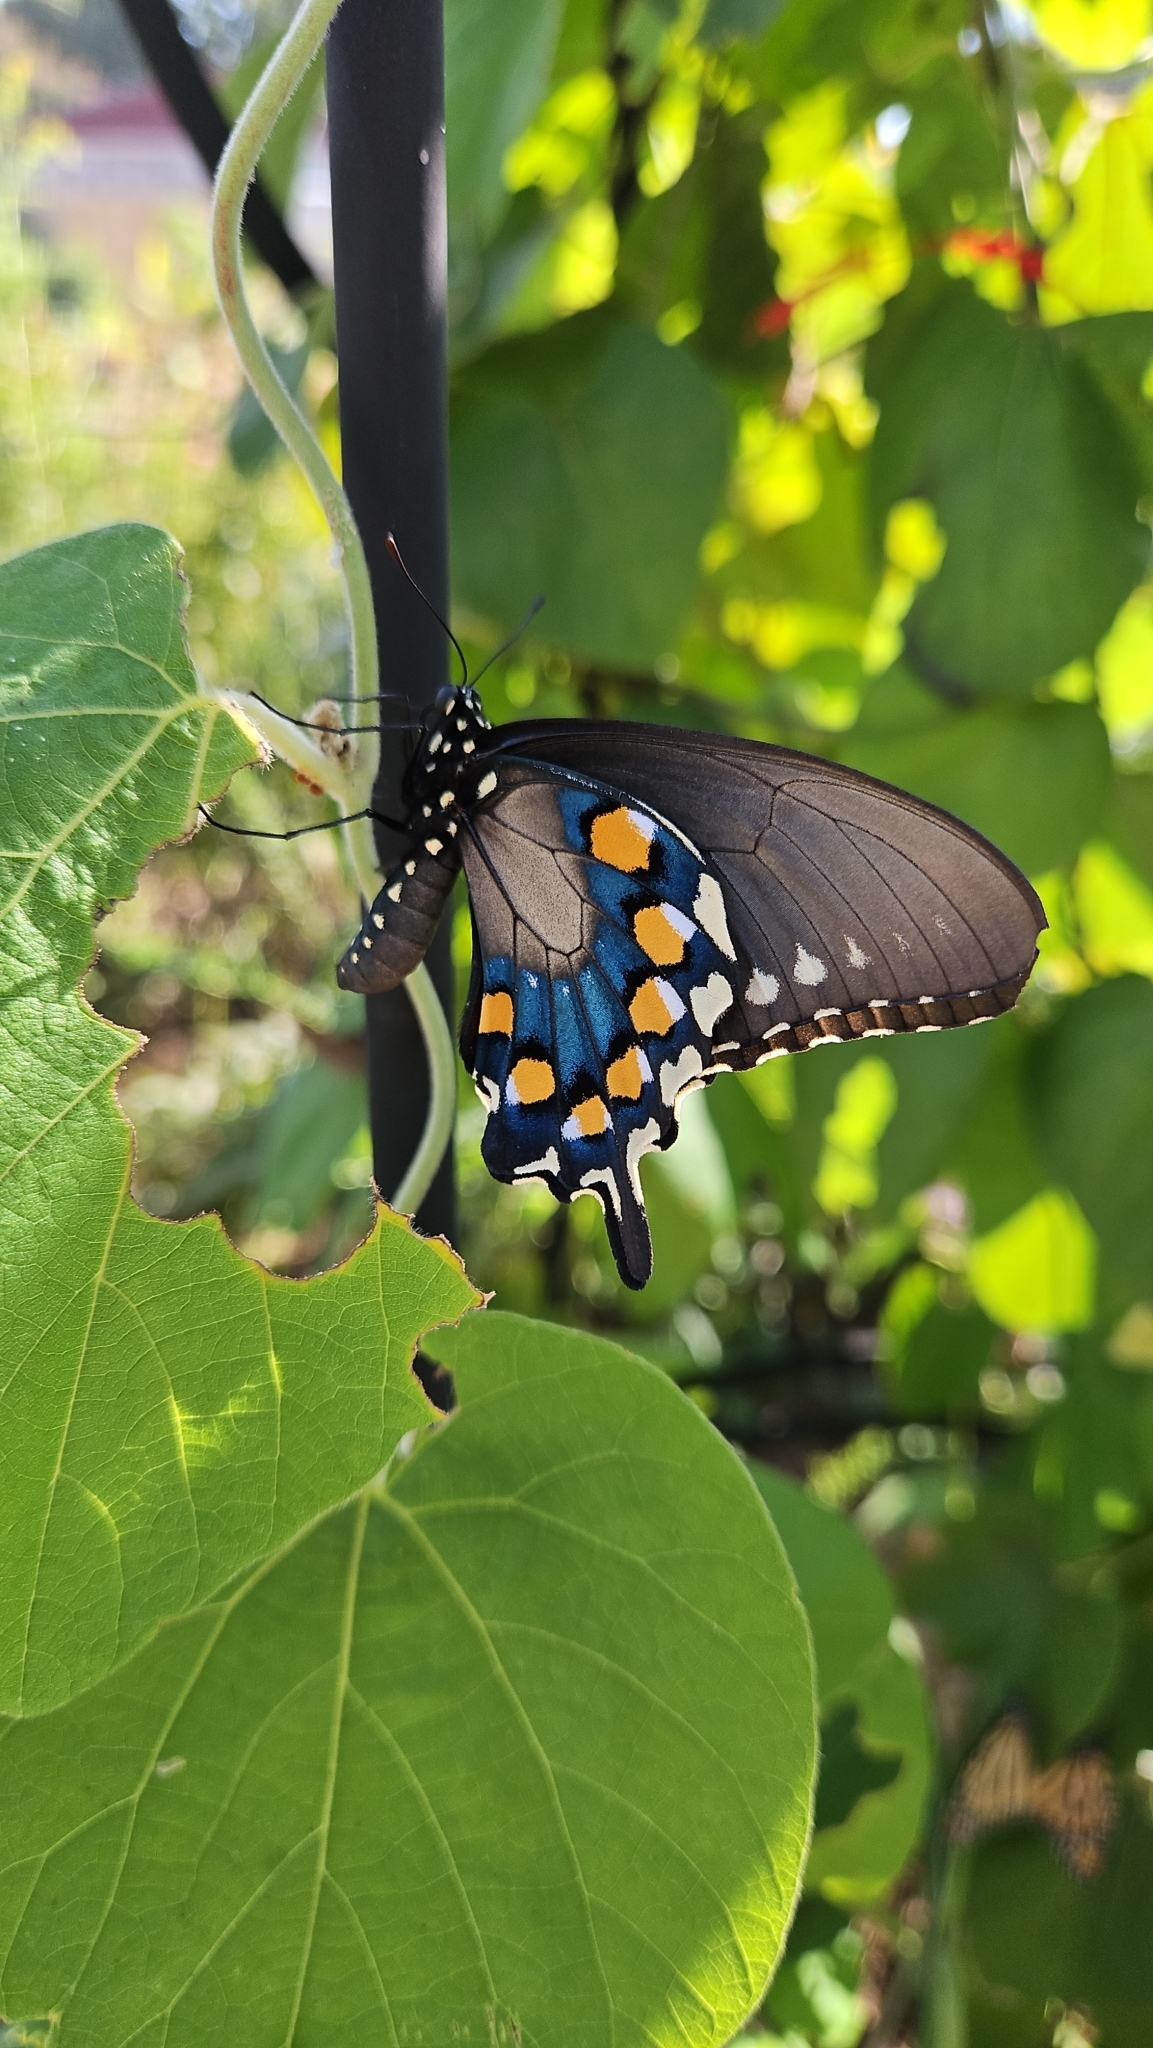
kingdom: Animalia
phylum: Arthropoda
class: Insecta
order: Lepidoptera
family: Papilionidae
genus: Battus
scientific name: Battus philenor
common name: Pipevine swallowtail
